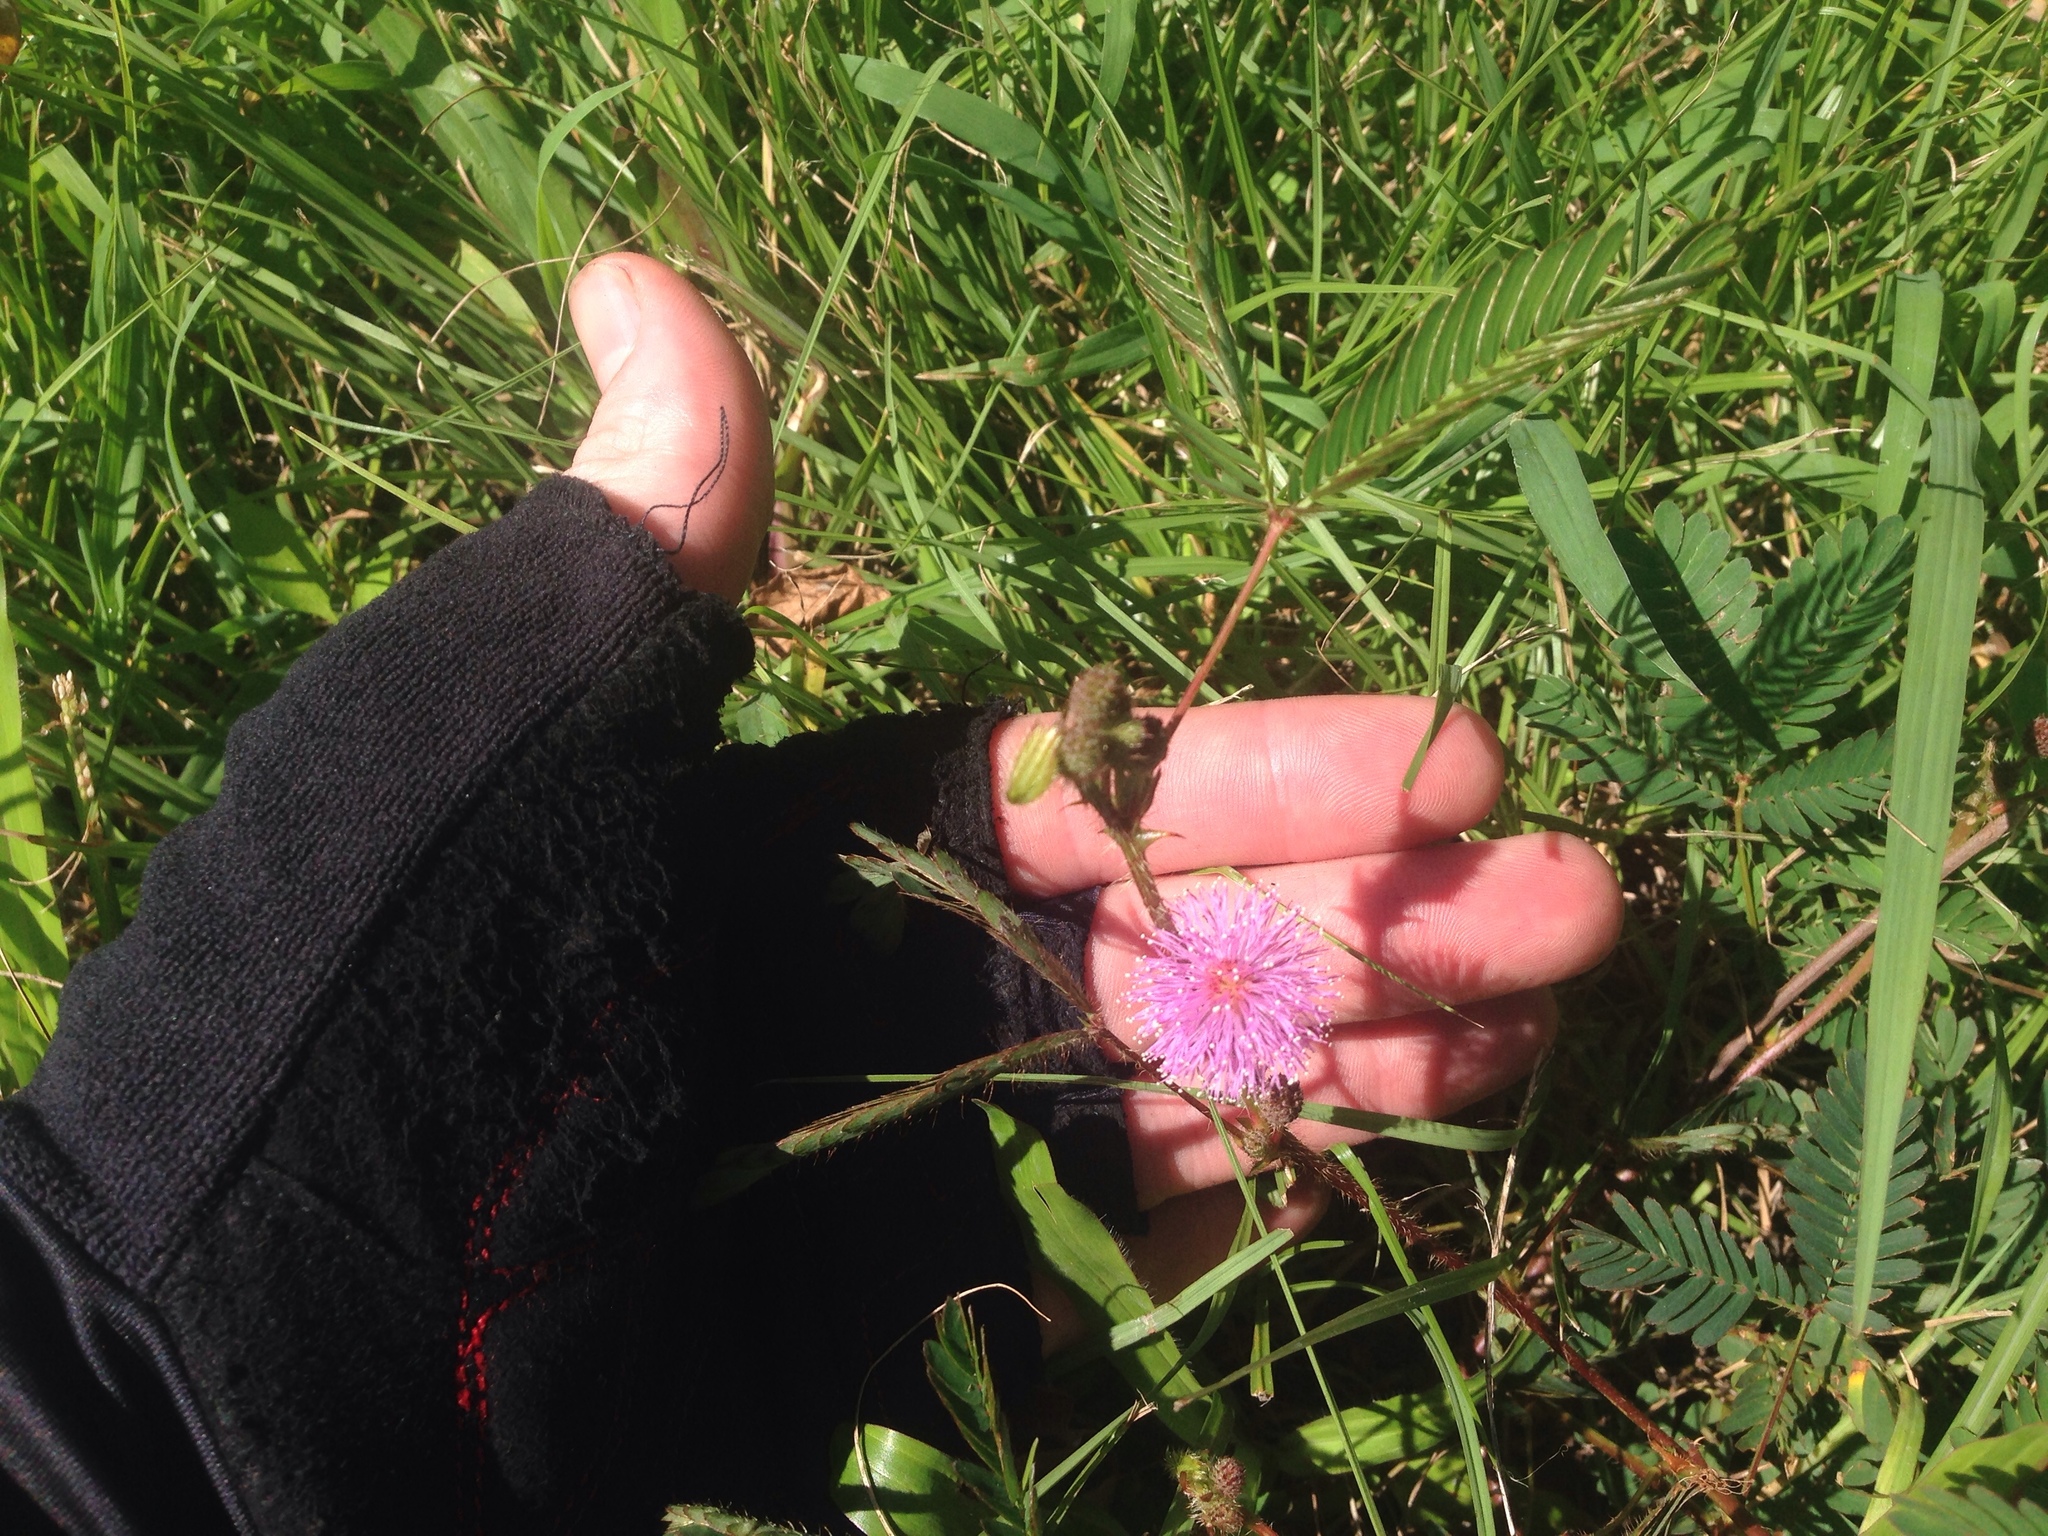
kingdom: Plantae
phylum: Tracheophyta
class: Magnoliopsida
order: Fabales
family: Fabaceae
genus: Mimosa
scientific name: Mimosa pudica
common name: Sensitive plant
